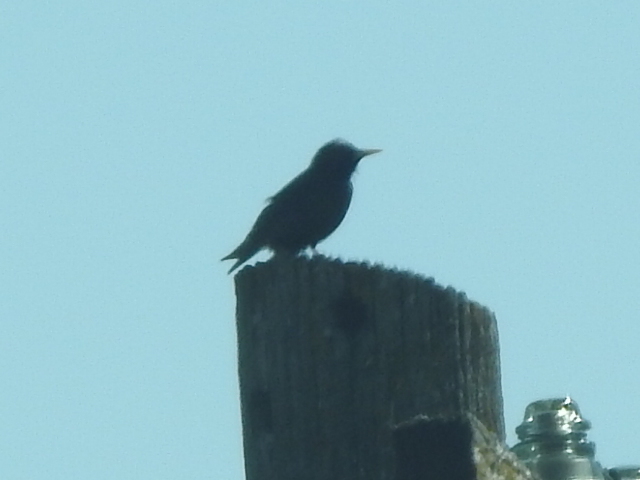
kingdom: Animalia
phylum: Chordata
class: Aves
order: Passeriformes
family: Sturnidae
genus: Sturnus
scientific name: Sturnus vulgaris
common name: Common starling
